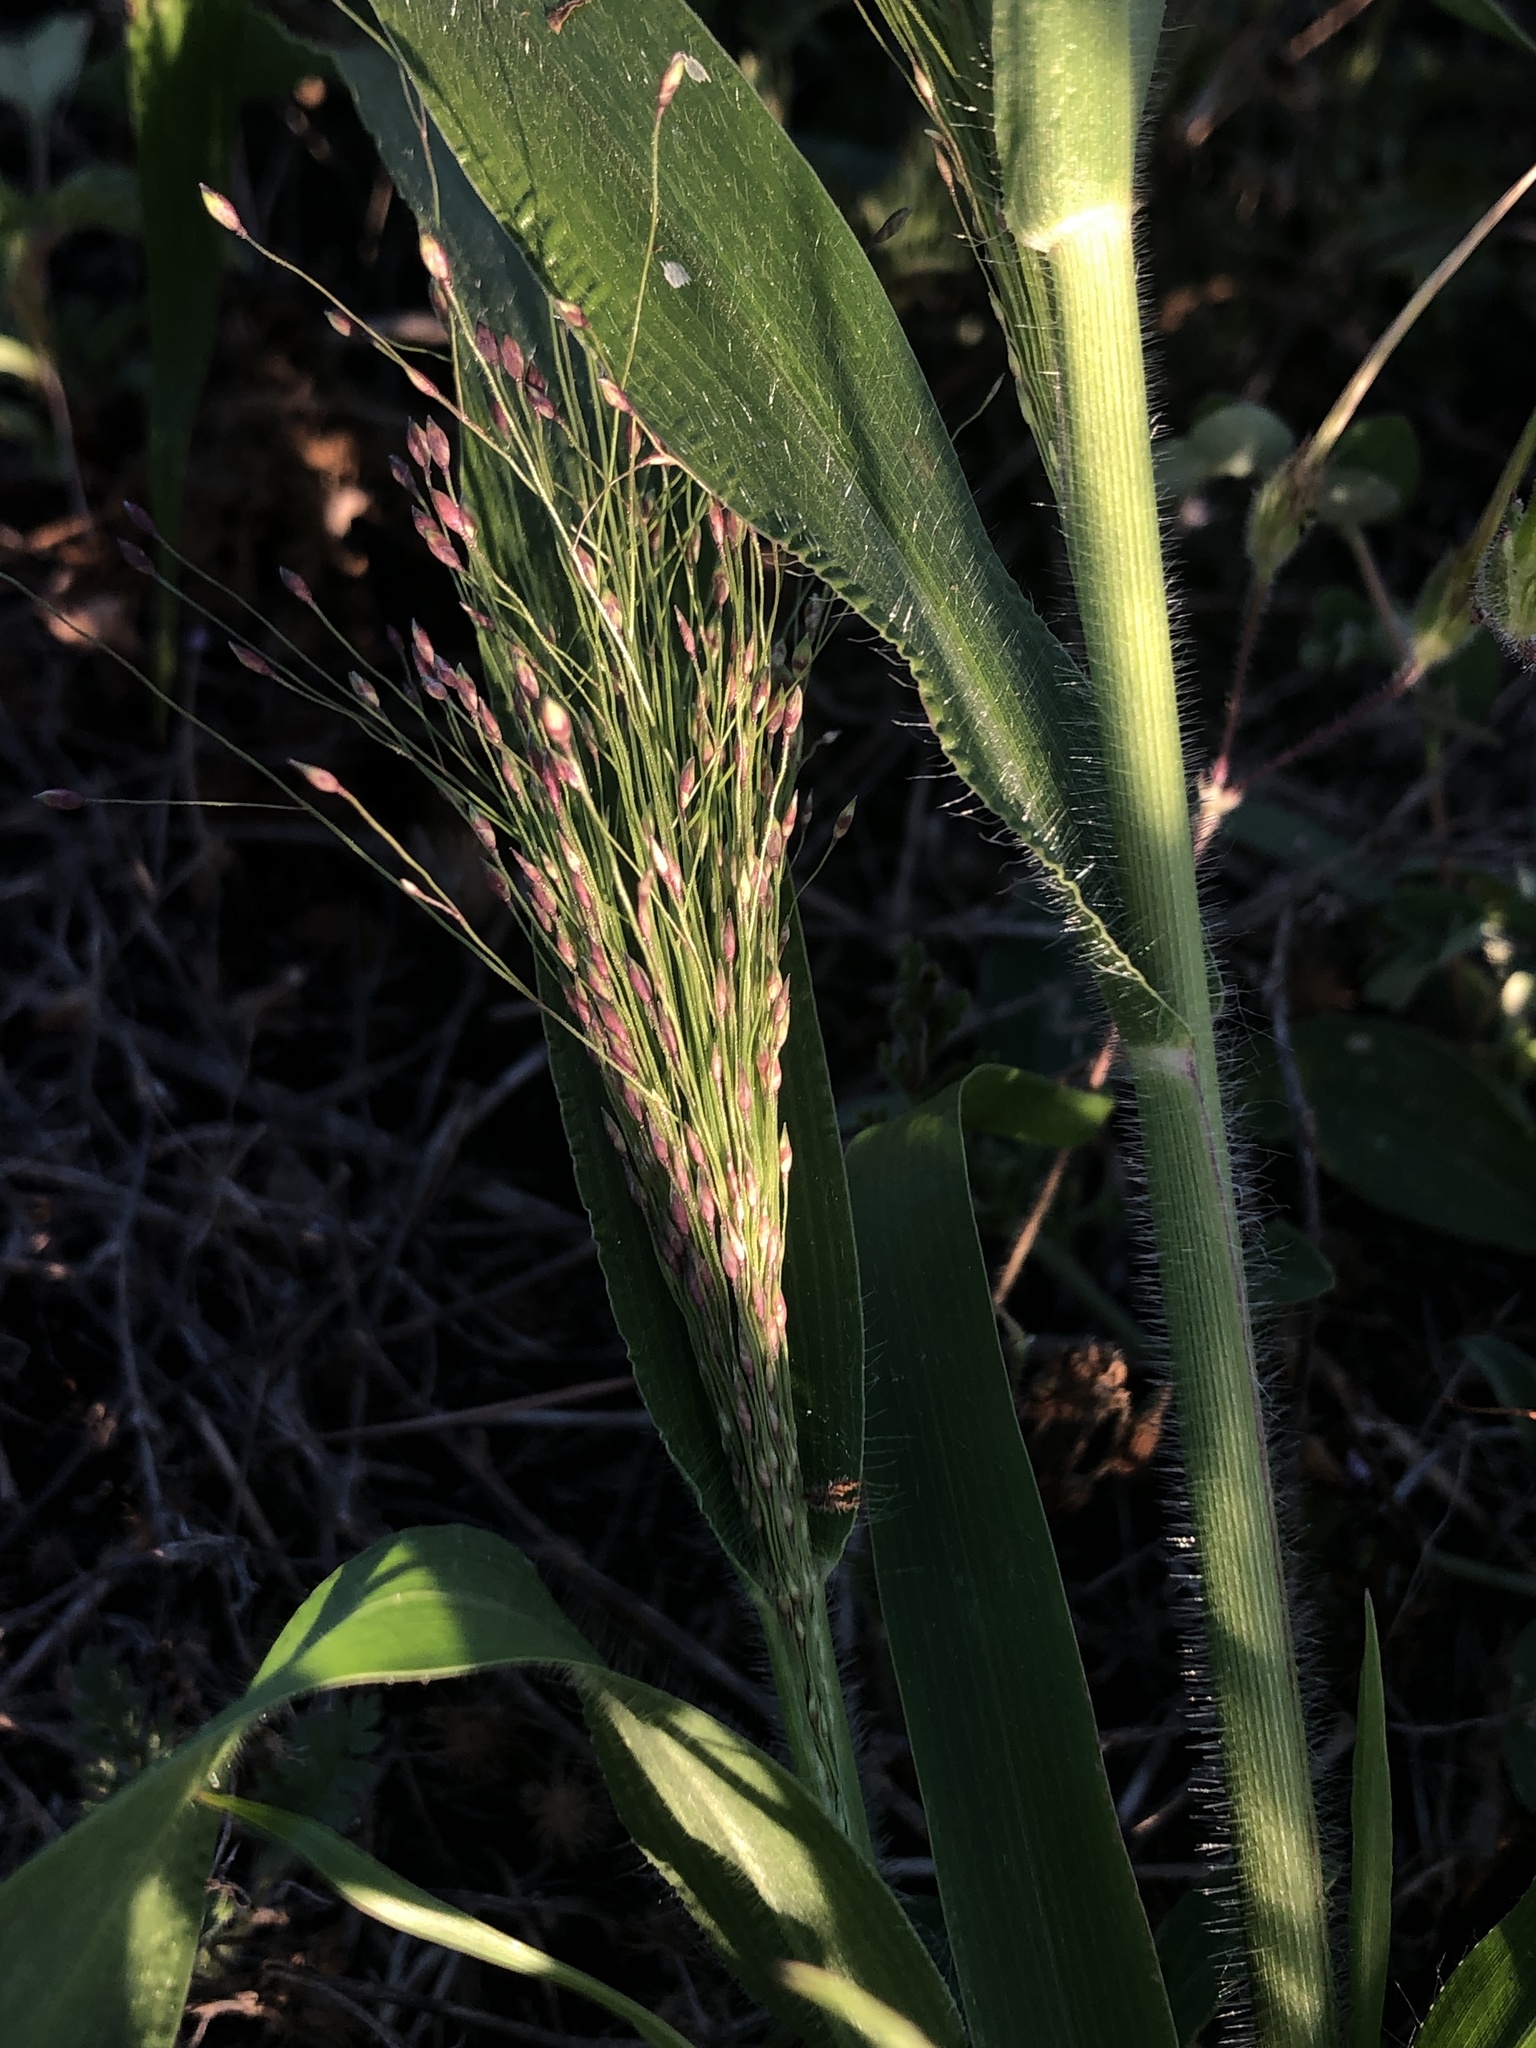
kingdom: Plantae
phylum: Tracheophyta
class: Liliopsida
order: Poales
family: Poaceae
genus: Panicum
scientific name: Panicum capillare
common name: Witch-grass
